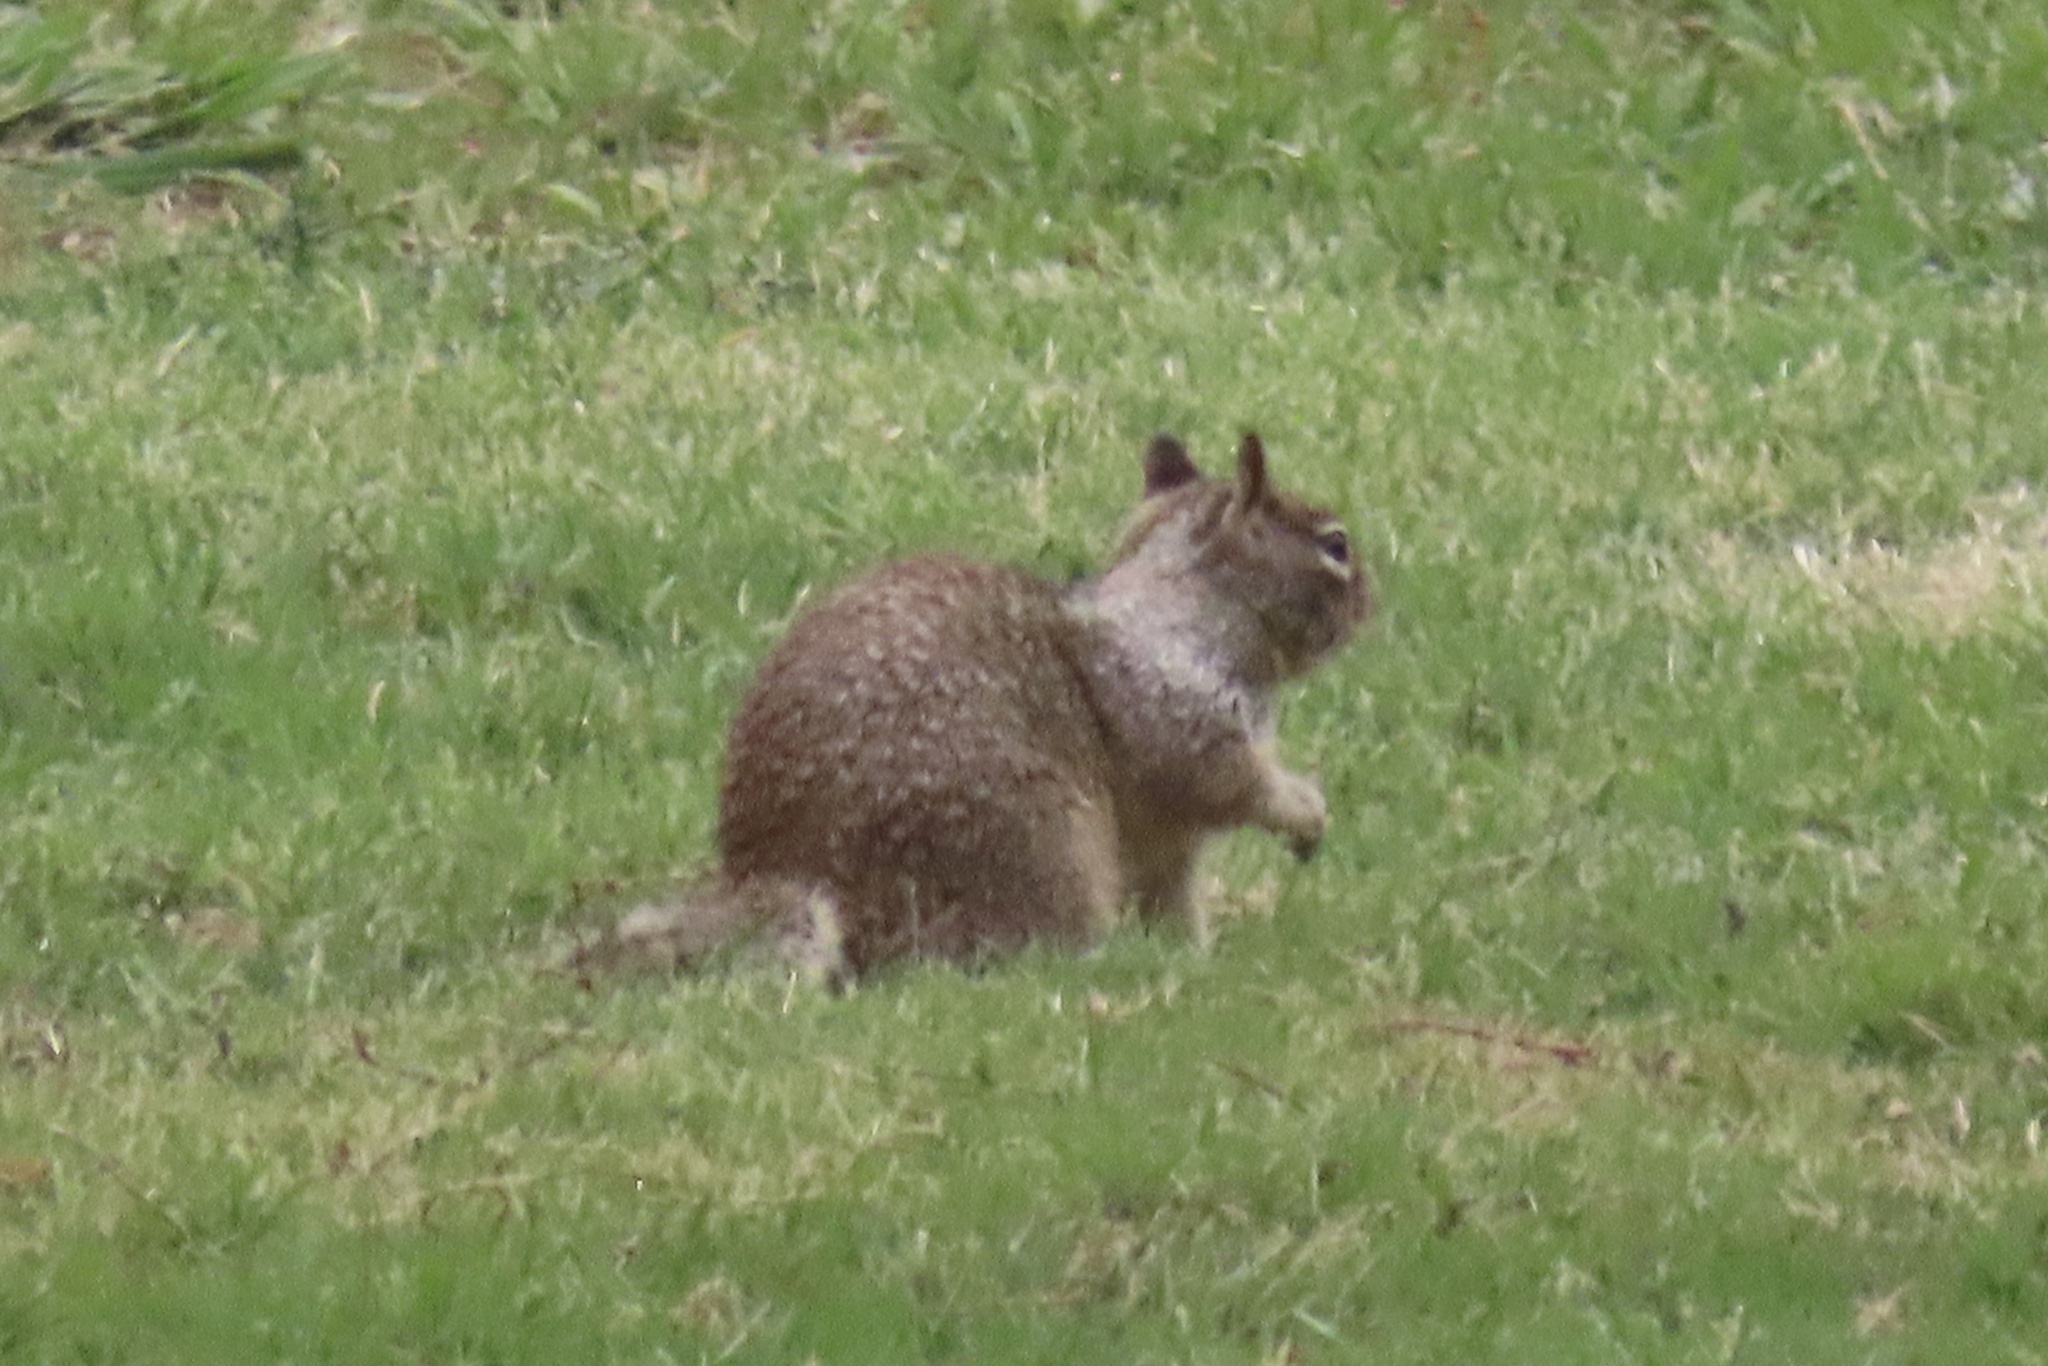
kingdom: Animalia
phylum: Chordata
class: Mammalia
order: Rodentia
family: Sciuridae
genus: Otospermophilus
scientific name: Otospermophilus beecheyi
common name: California ground squirrel
